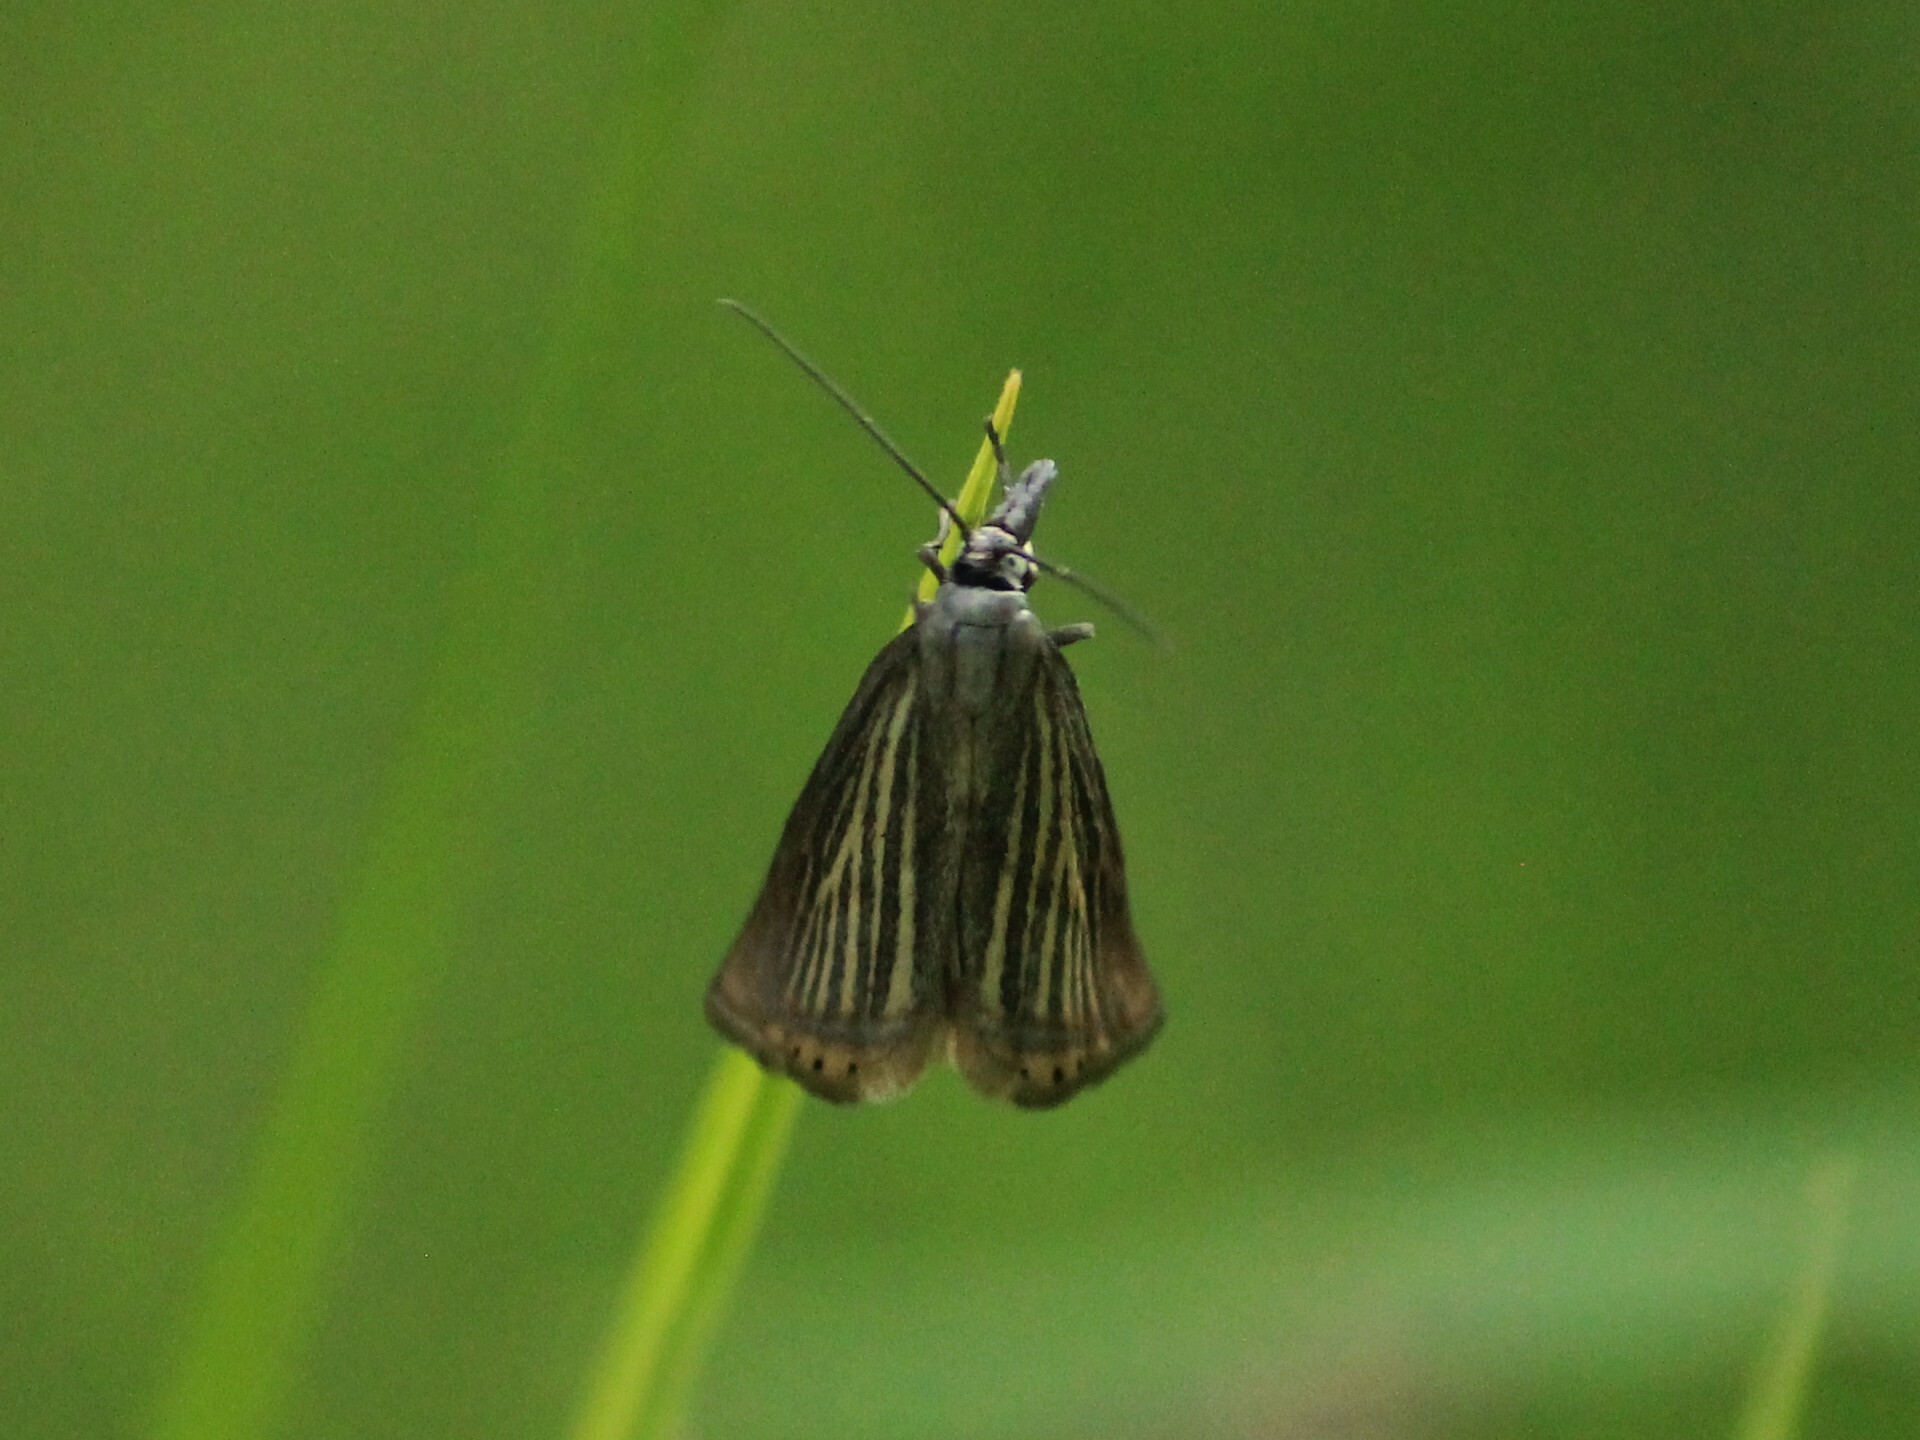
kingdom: Animalia
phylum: Arthropoda
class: Insecta
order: Lepidoptera
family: Crambidae
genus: Chrysoteuchia
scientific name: Chrysoteuchia culmella
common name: Garden grass-veneer
